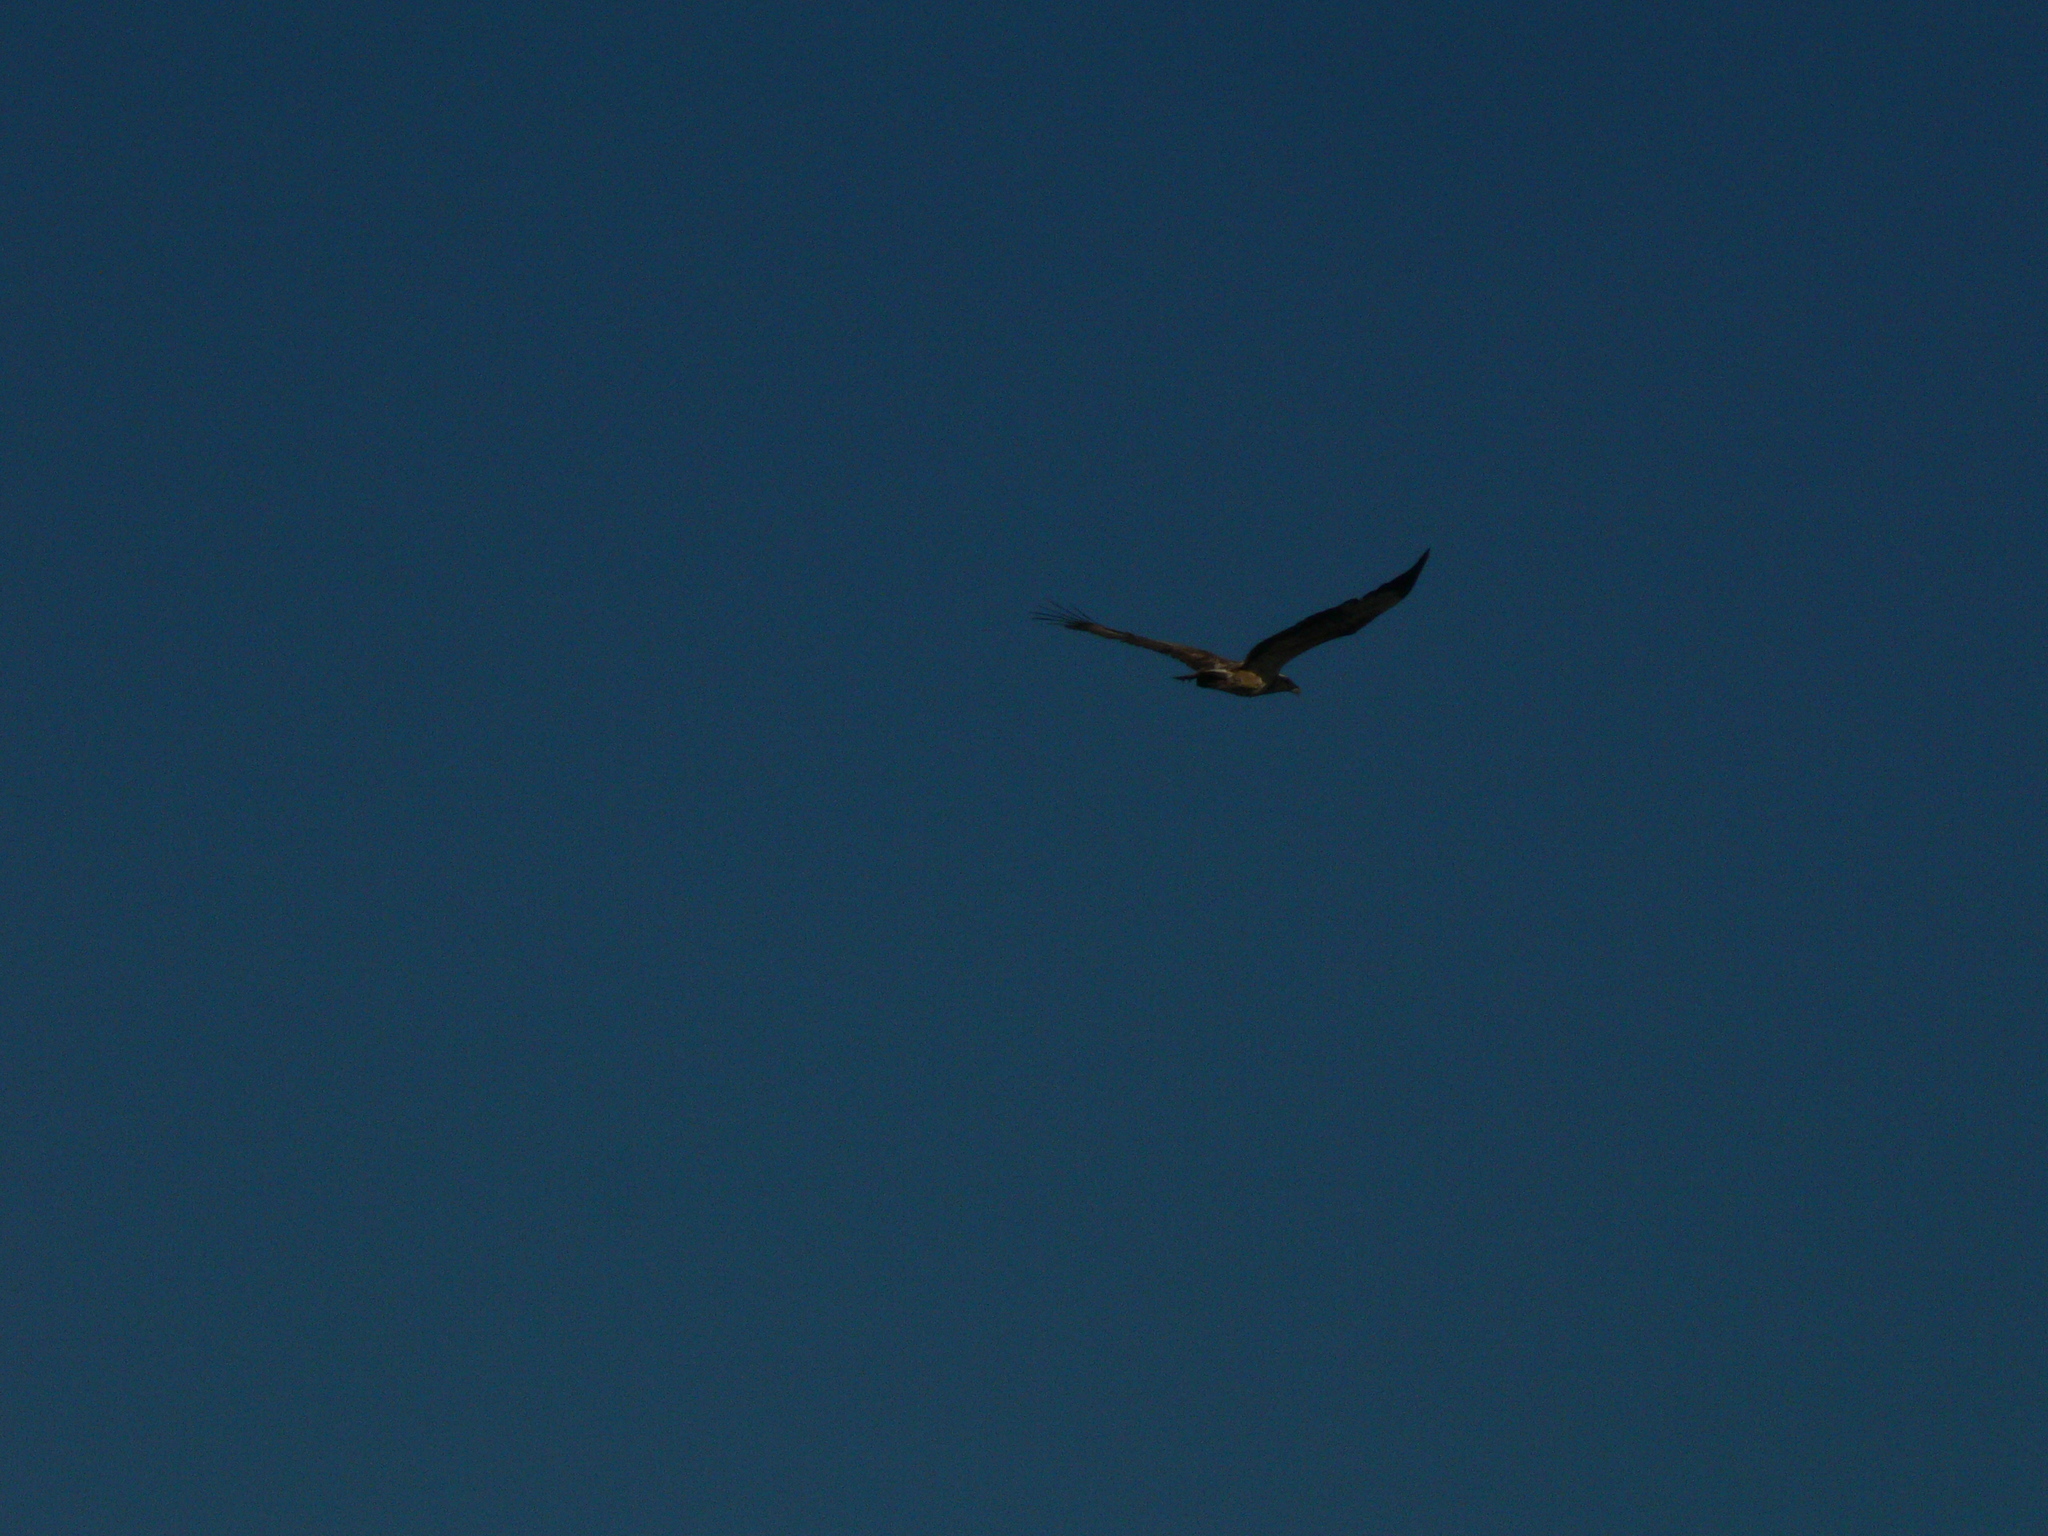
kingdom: Animalia
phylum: Chordata
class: Aves
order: Accipitriformes
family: Accipitridae
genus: Haliaeetus
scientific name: Haliaeetus leucogaster
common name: White-bellied sea eagle
